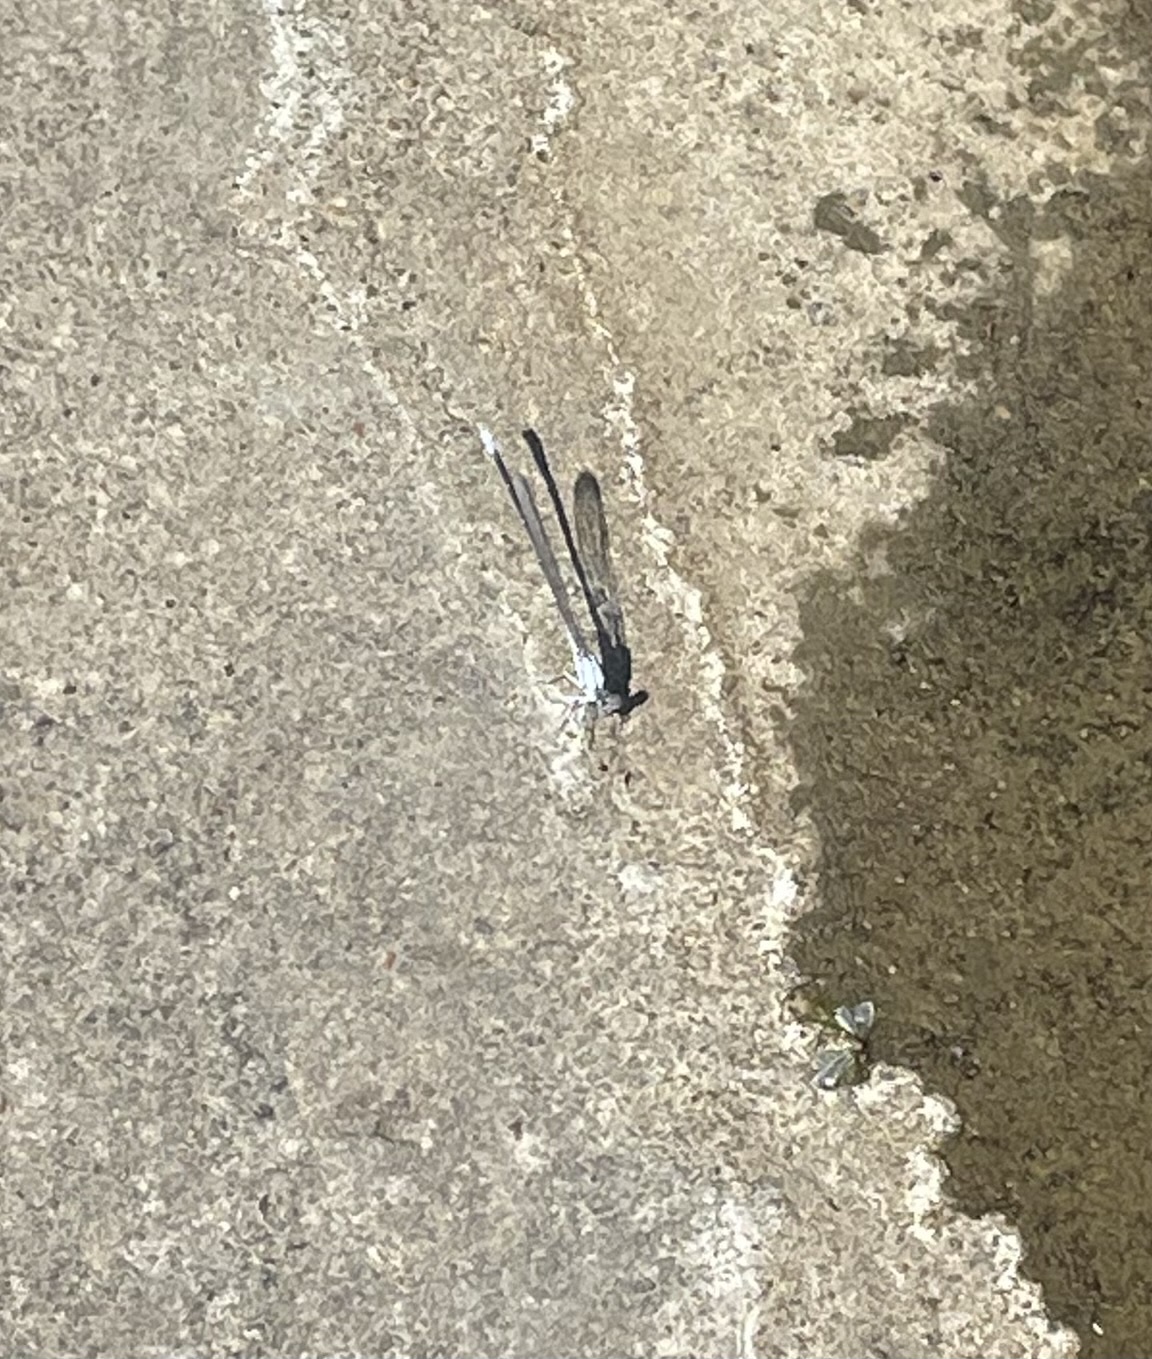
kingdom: Animalia
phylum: Arthropoda
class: Insecta
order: Odonata
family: Coenagrionidae
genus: Argia
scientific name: Argia moesta
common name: Powdered dancer
